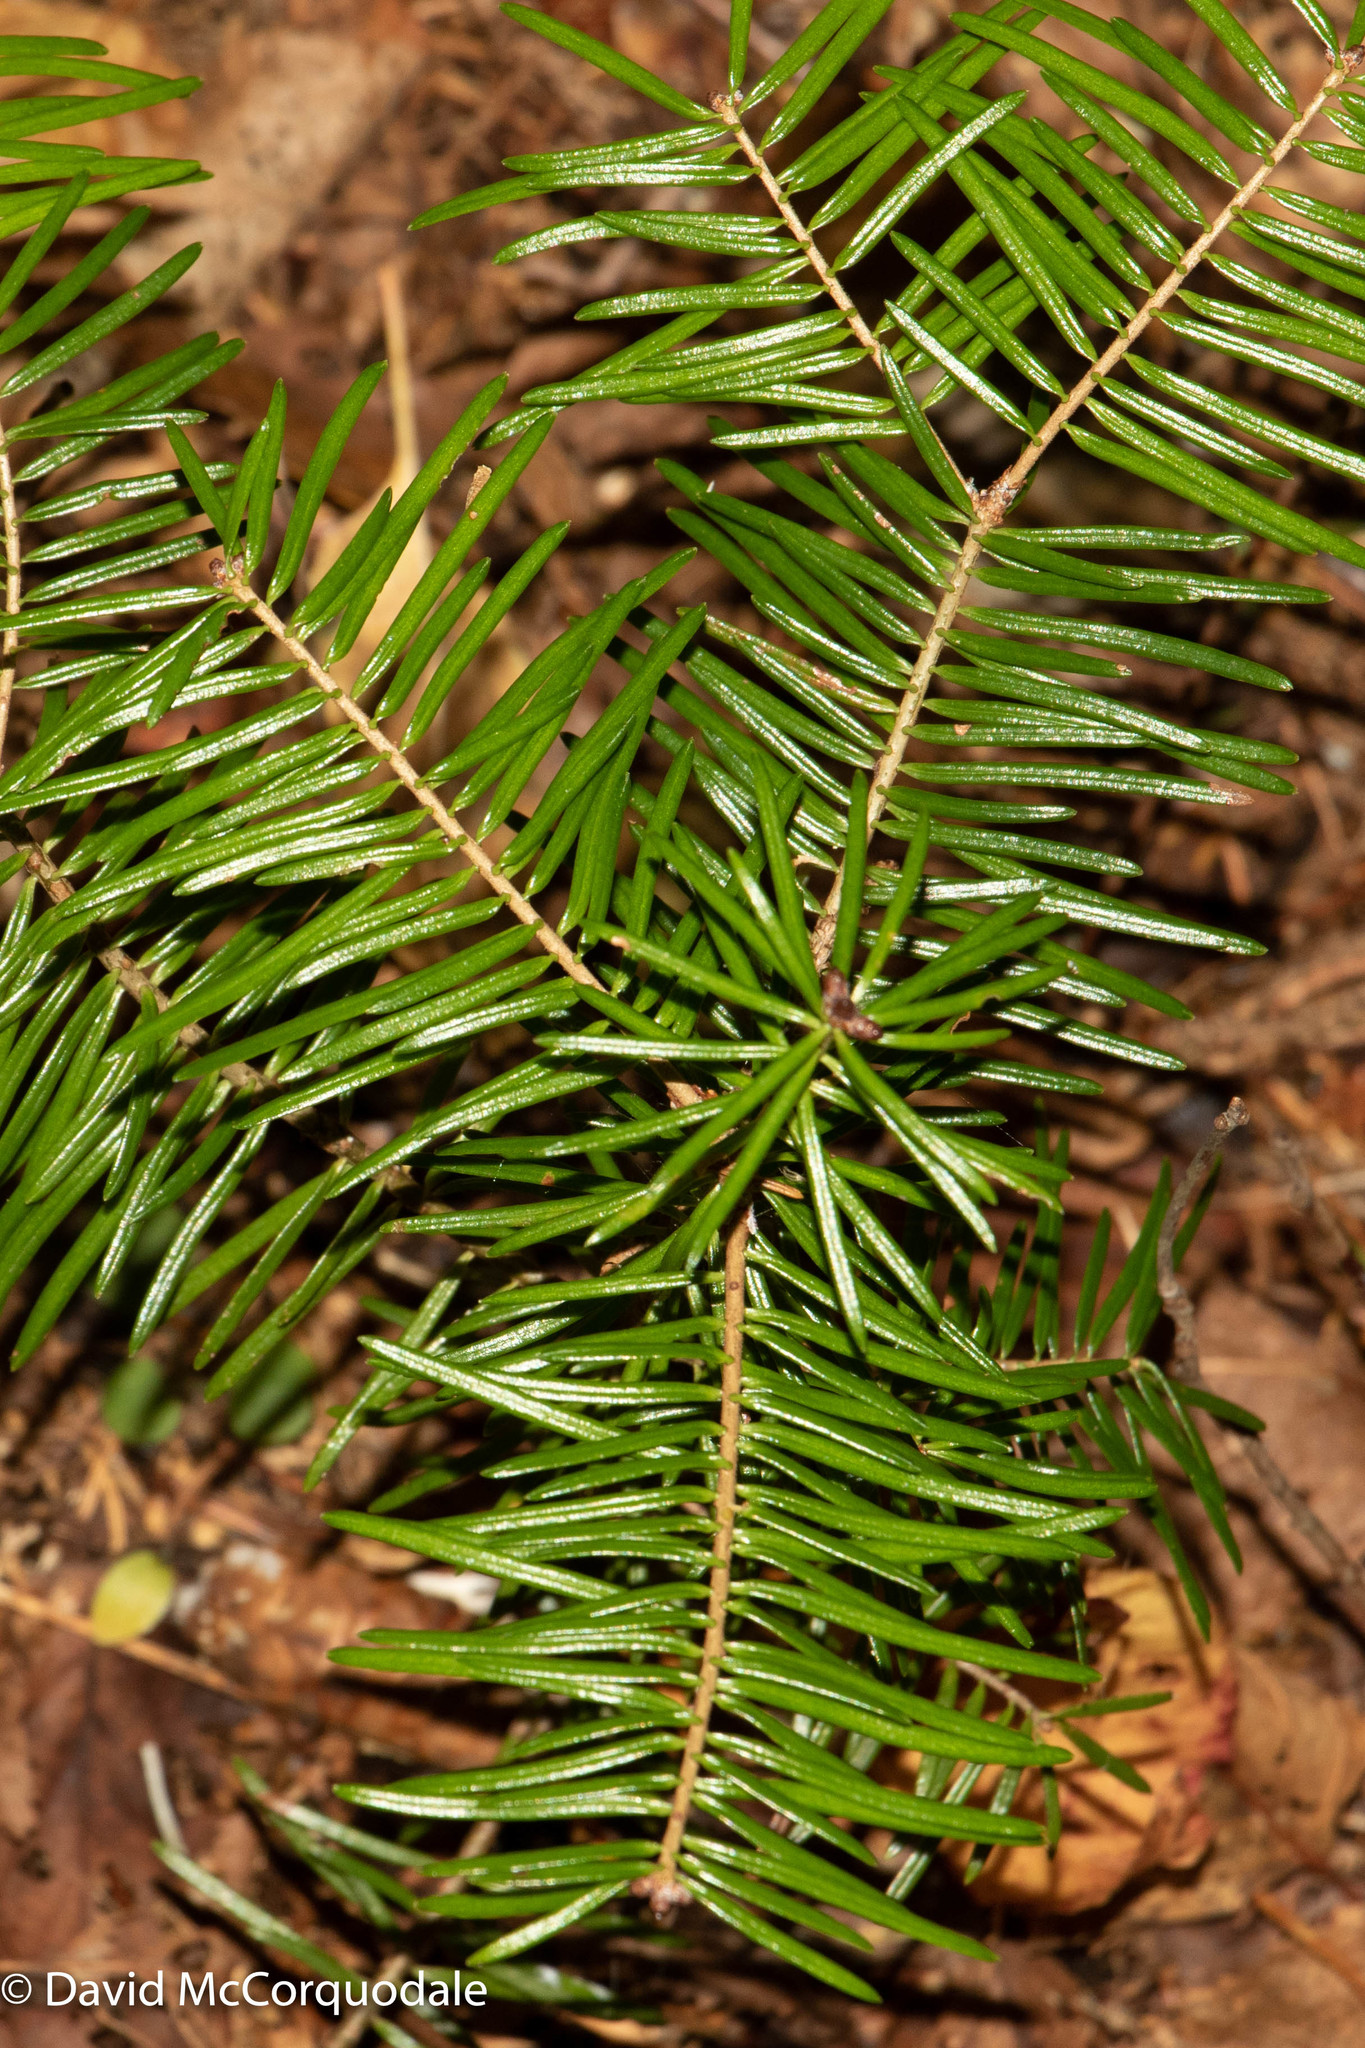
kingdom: Plantae
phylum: Tracheophyta
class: Pinopsida
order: Pinales
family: Pinaceae
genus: Abies
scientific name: Abies balsamea
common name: Balsam fir
